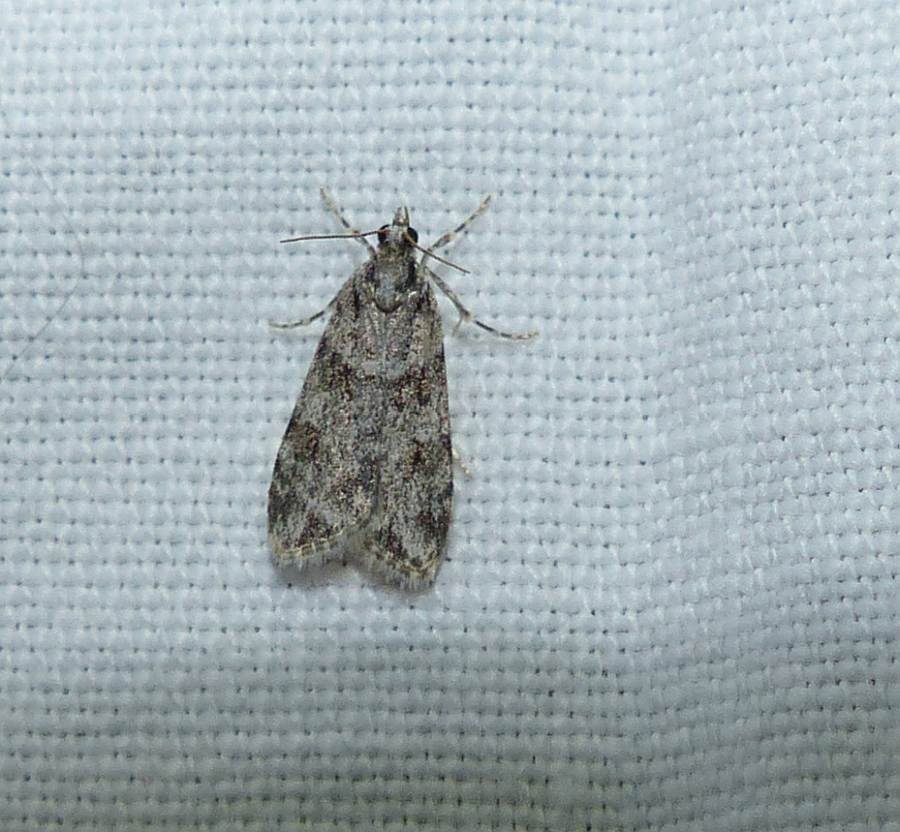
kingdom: Animalia
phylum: Arthropoda
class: Insecta
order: Lepidoptera
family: Crambidae
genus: Scoparia
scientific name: Scoparia biplagialis
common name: Double-striped scoparia moth
